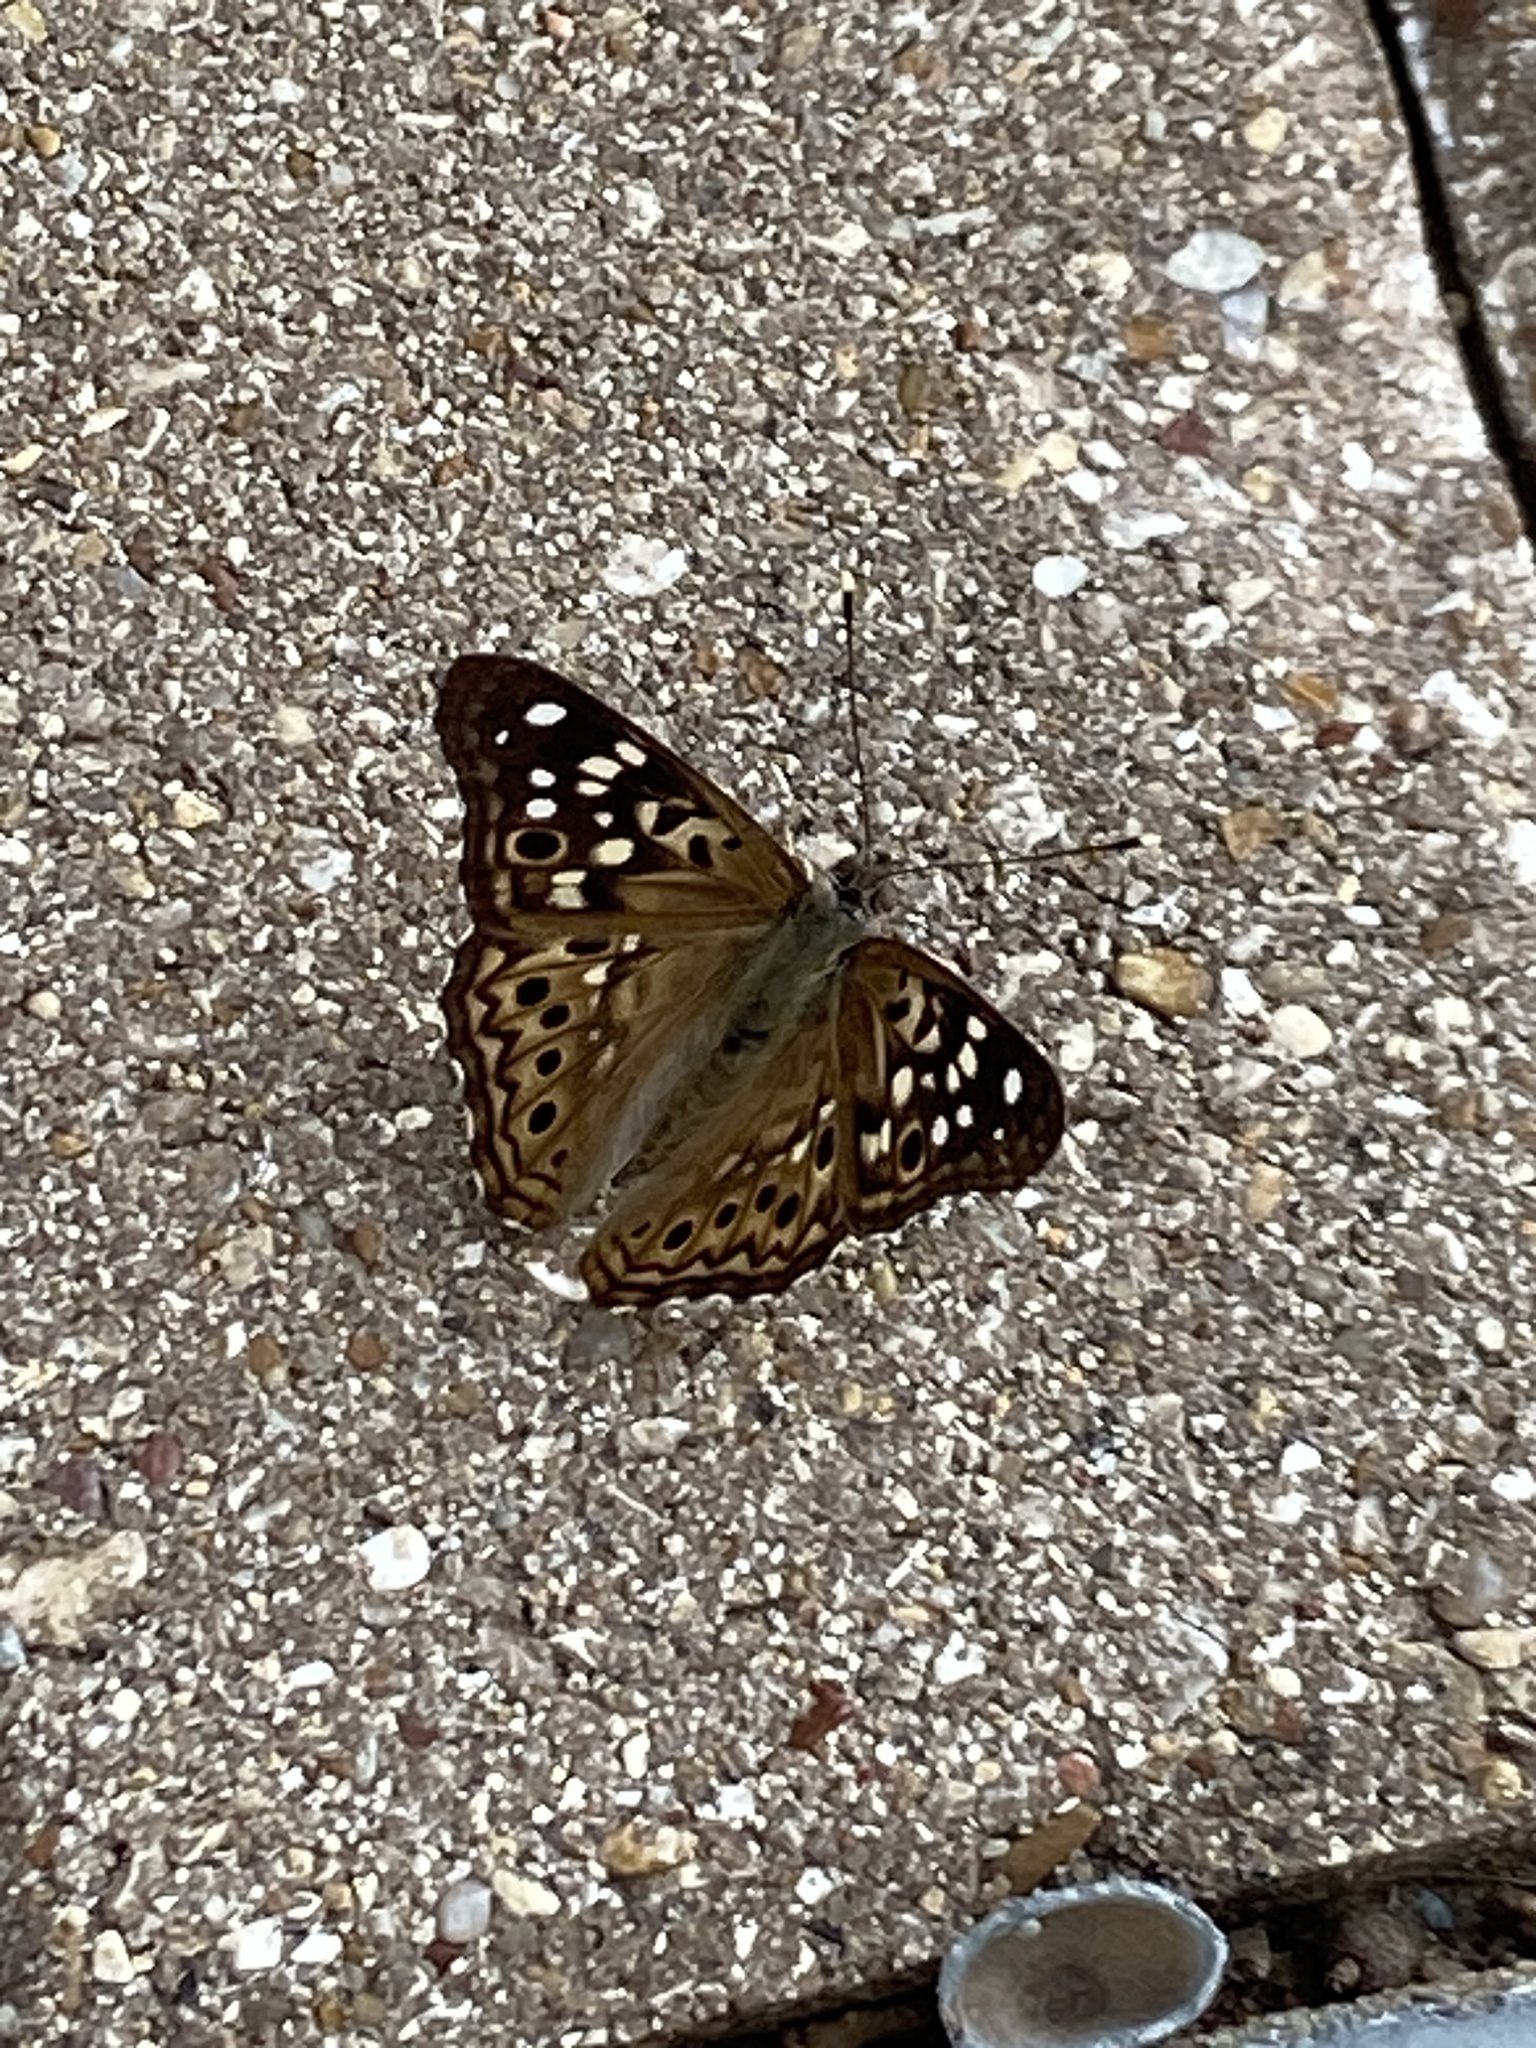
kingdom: Animalia
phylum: Arthropoda
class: Insecta
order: Lepidoptera
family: Nymphalidae
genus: Asterocampa
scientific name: Asterocampa celtis
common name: Hackberry emperor
